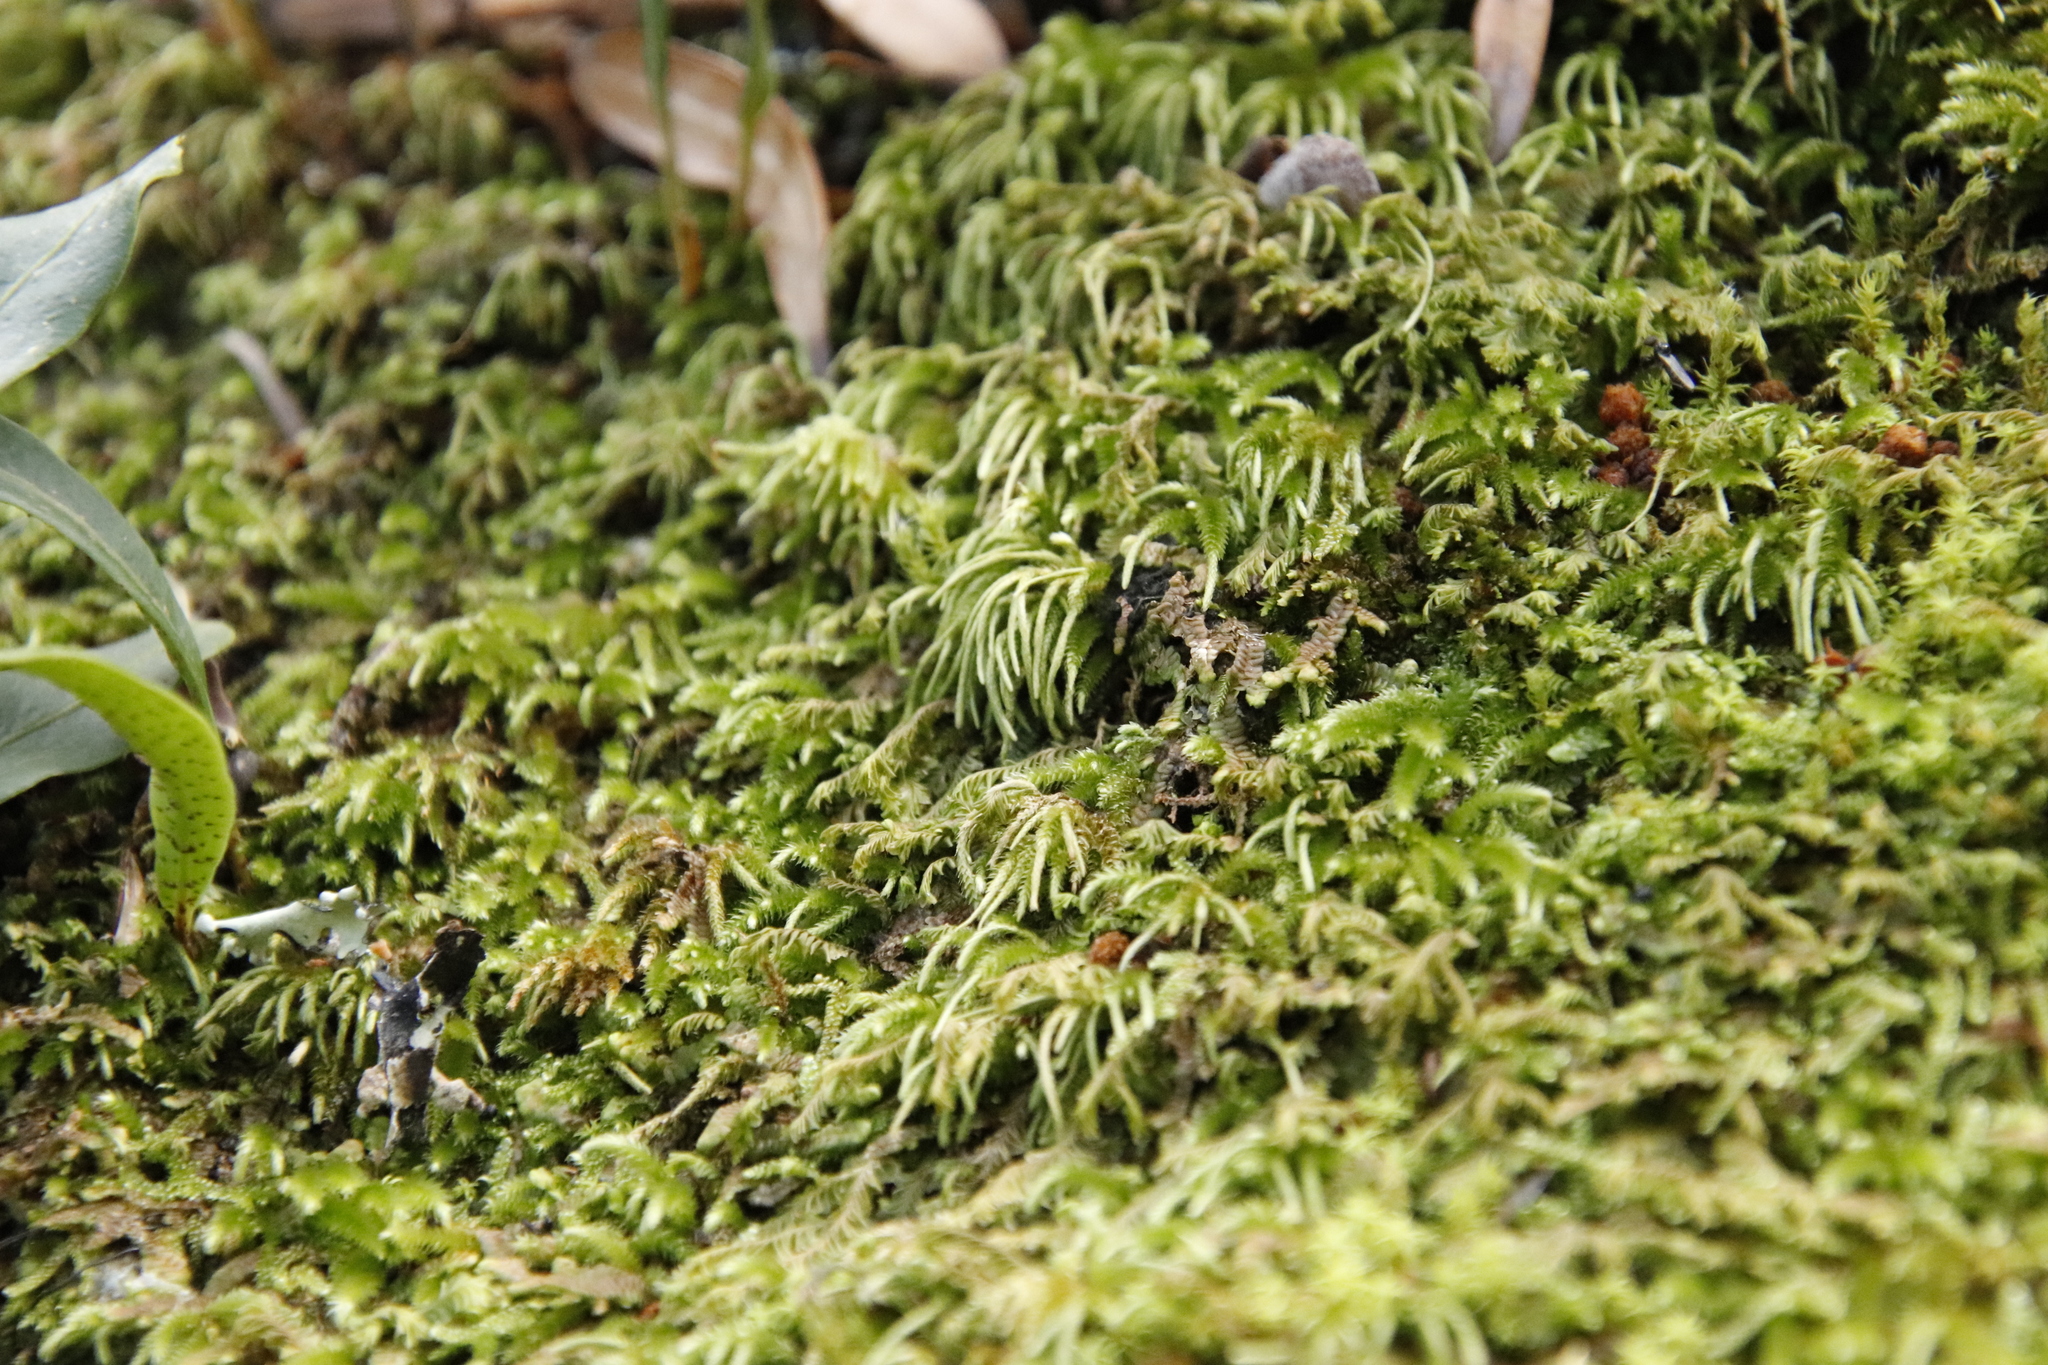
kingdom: Plantae
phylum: Bryophyta
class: Bryopsida
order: Hypnales
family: Lembophyllaceae
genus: Nogopterium
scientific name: Nogopterium gracile
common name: Bird's-foot wing-moss
